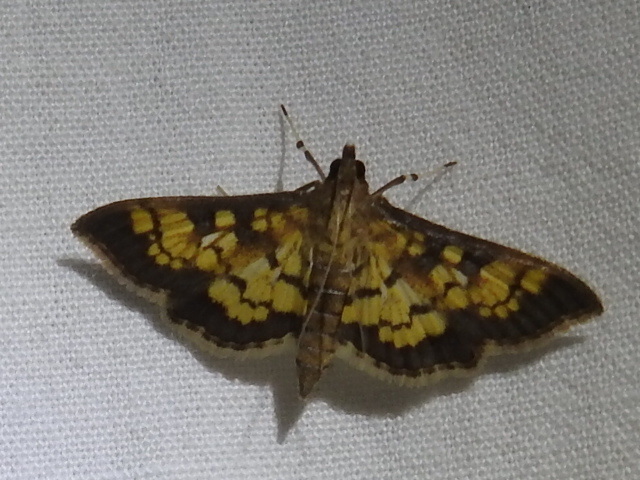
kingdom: Animalia
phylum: Arthropoda
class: Insecta
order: Lepidoptera
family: Crambidae
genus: Epipagis
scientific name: Epipagis adipaloides
